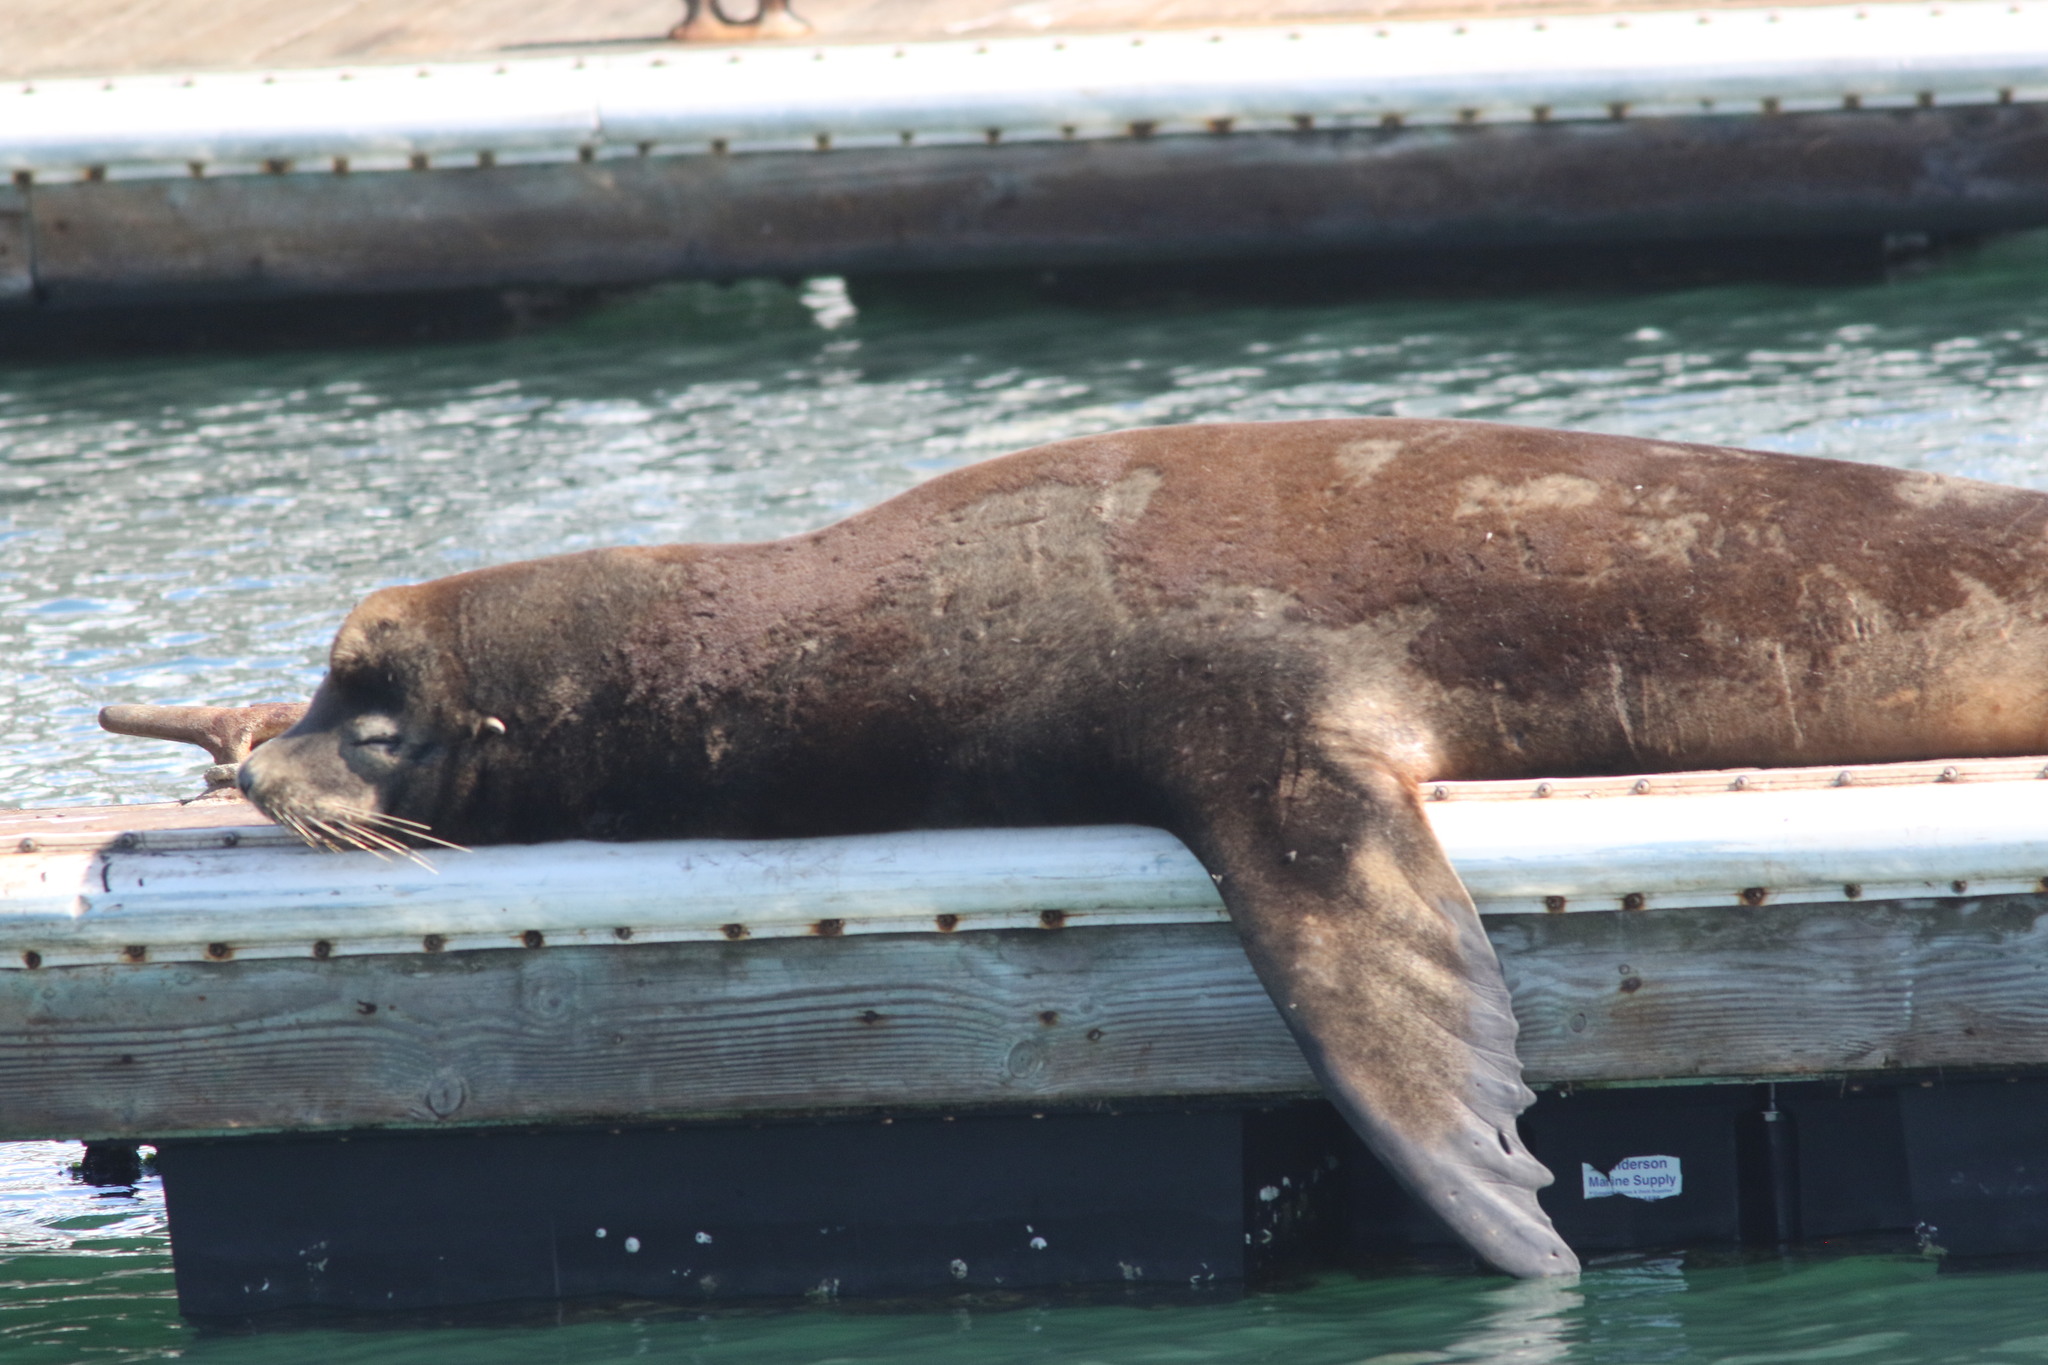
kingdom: Animalia
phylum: Chordata
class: Mammalia
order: Carnivora
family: Otariidae
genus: Zalophus
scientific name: Zalophus californianus
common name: California sea lion
